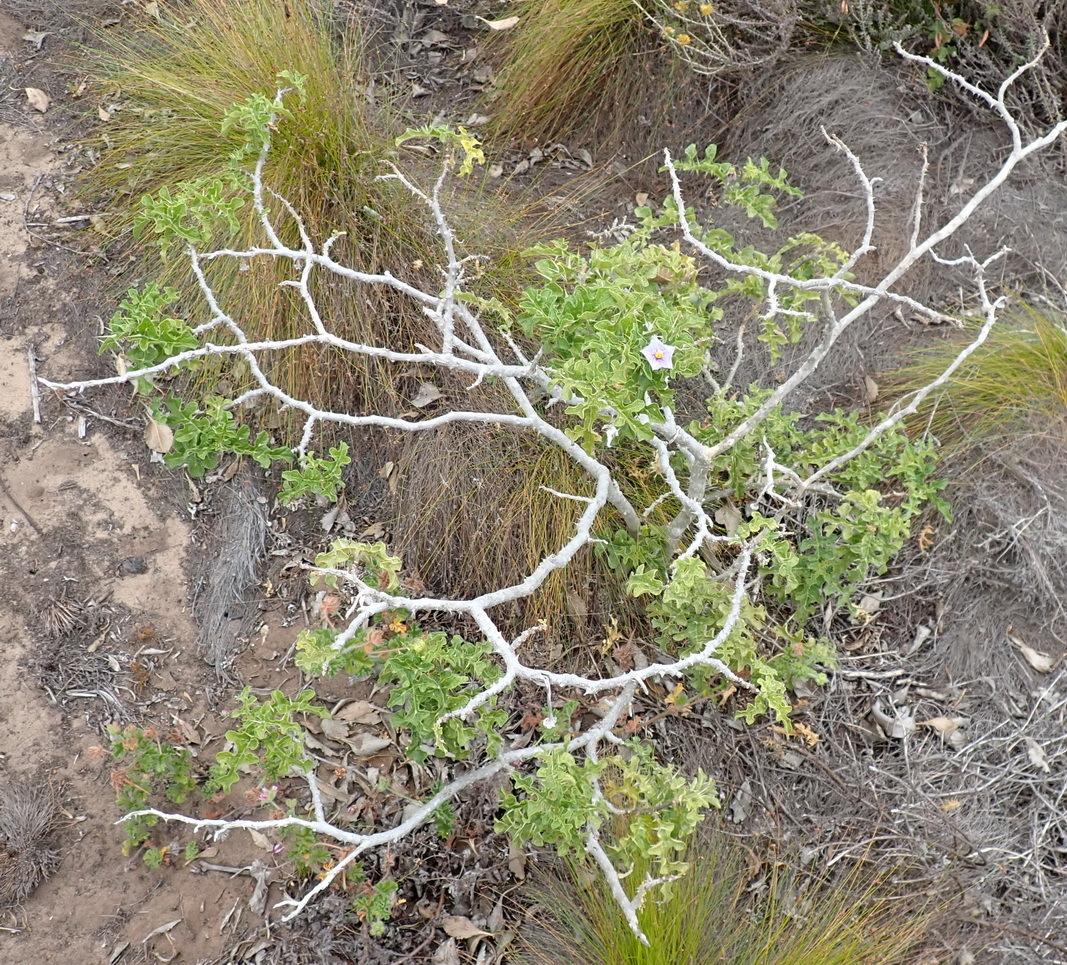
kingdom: Plantae
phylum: Tracheophyta
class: Magnoliopsida
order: Solanales
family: Solanaceae
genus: Solanum
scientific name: Solanum linnaeanum
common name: Nightshade
